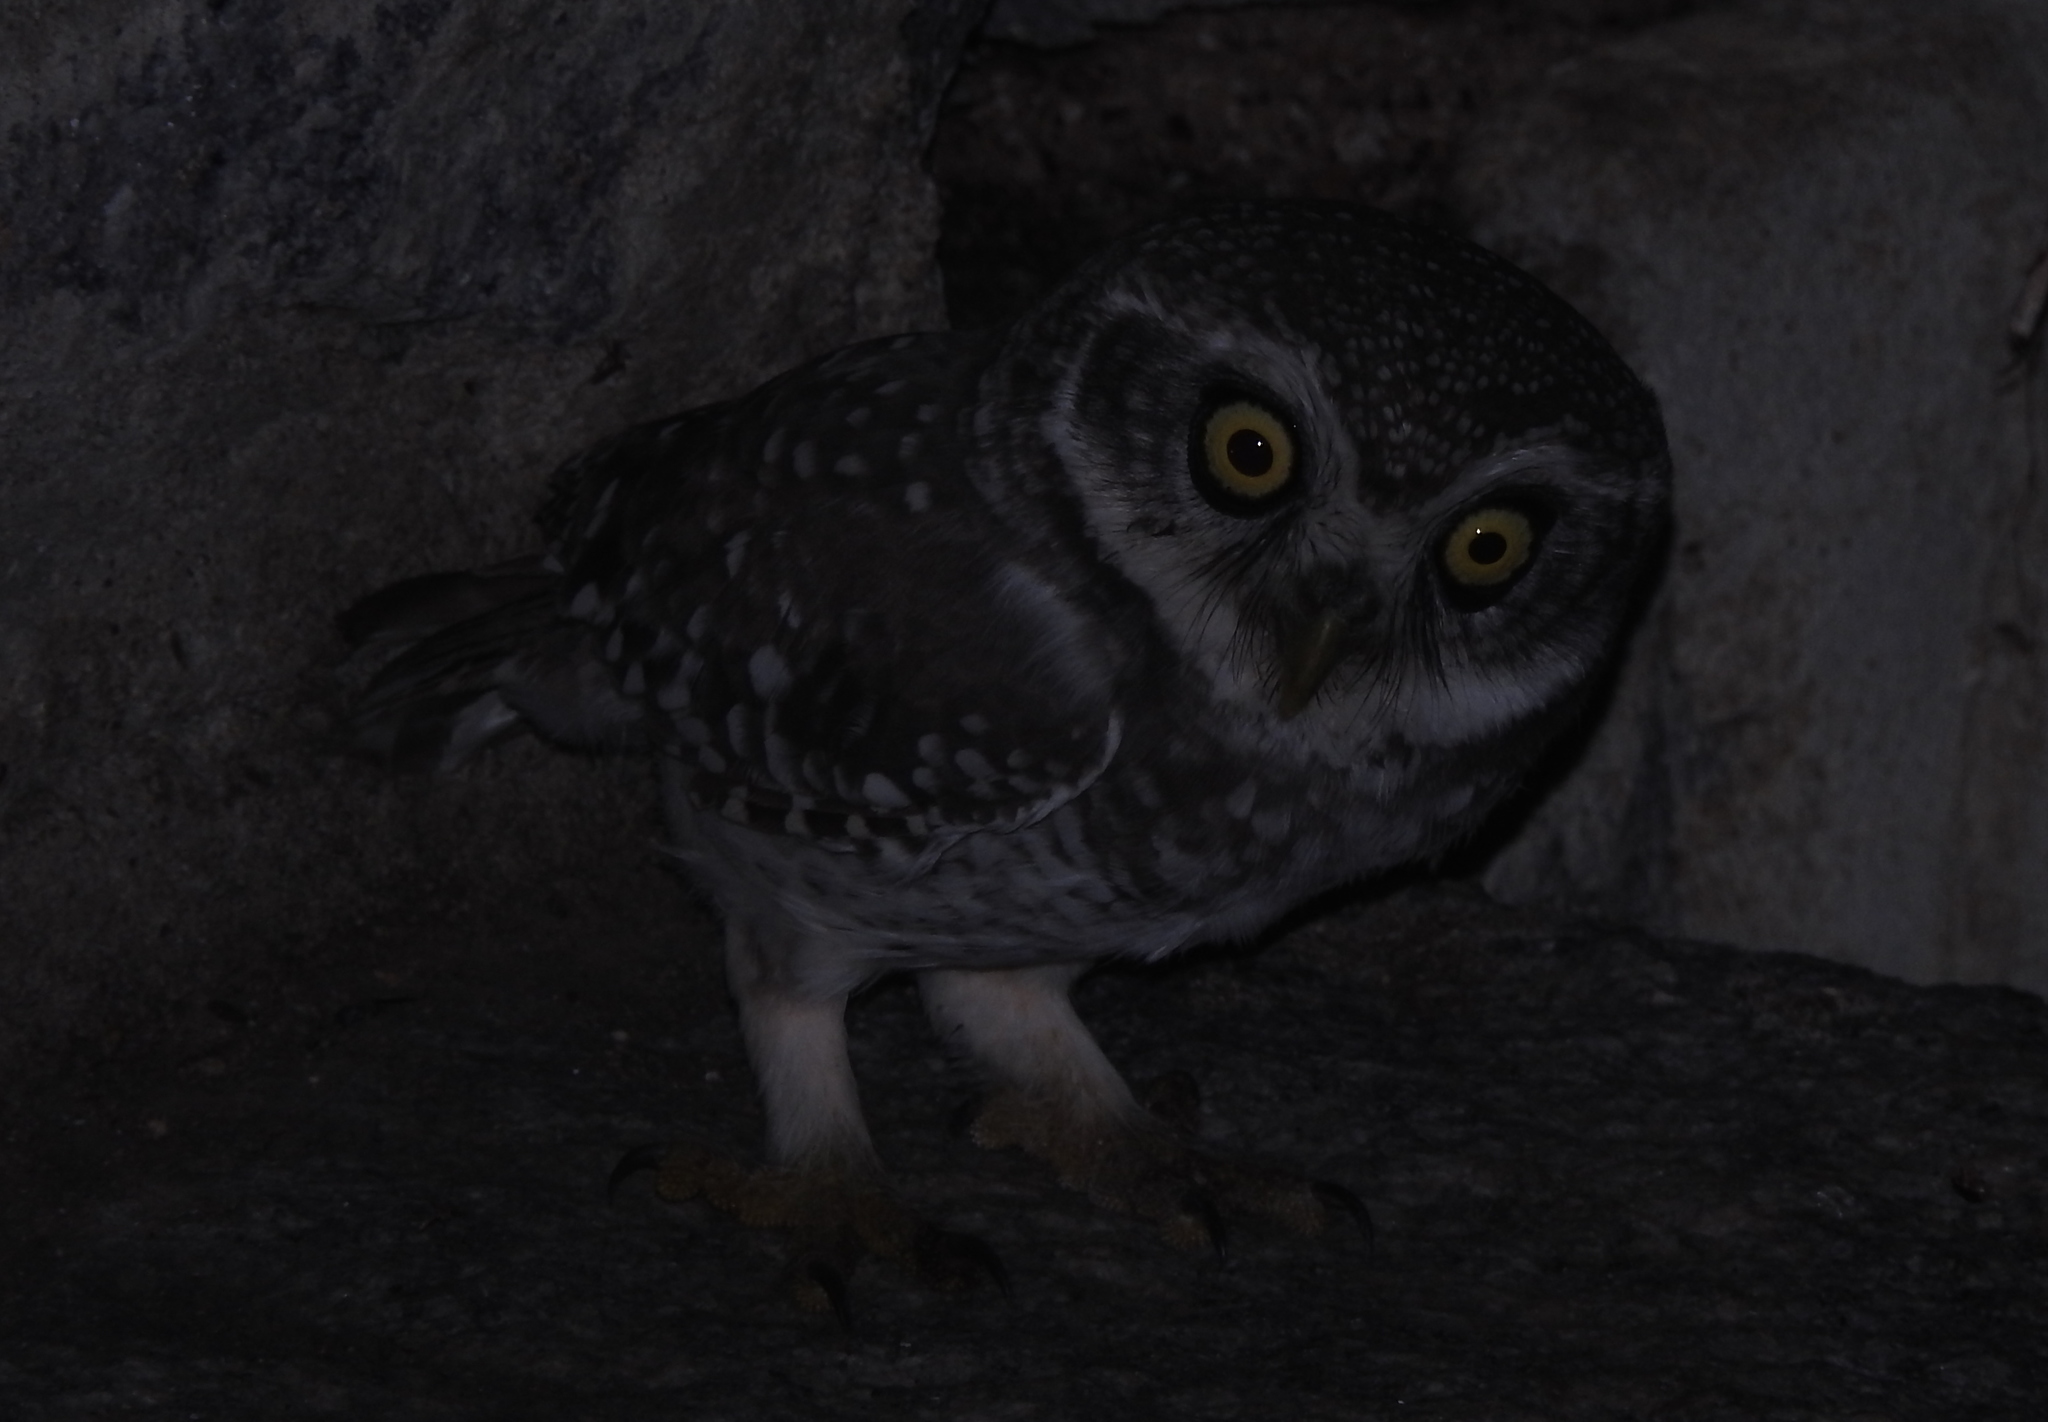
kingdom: Animalia
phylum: Chordata
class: Aves
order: Strigiformes
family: Strigidae
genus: Athene
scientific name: Athene brama
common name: Spotted owlet
